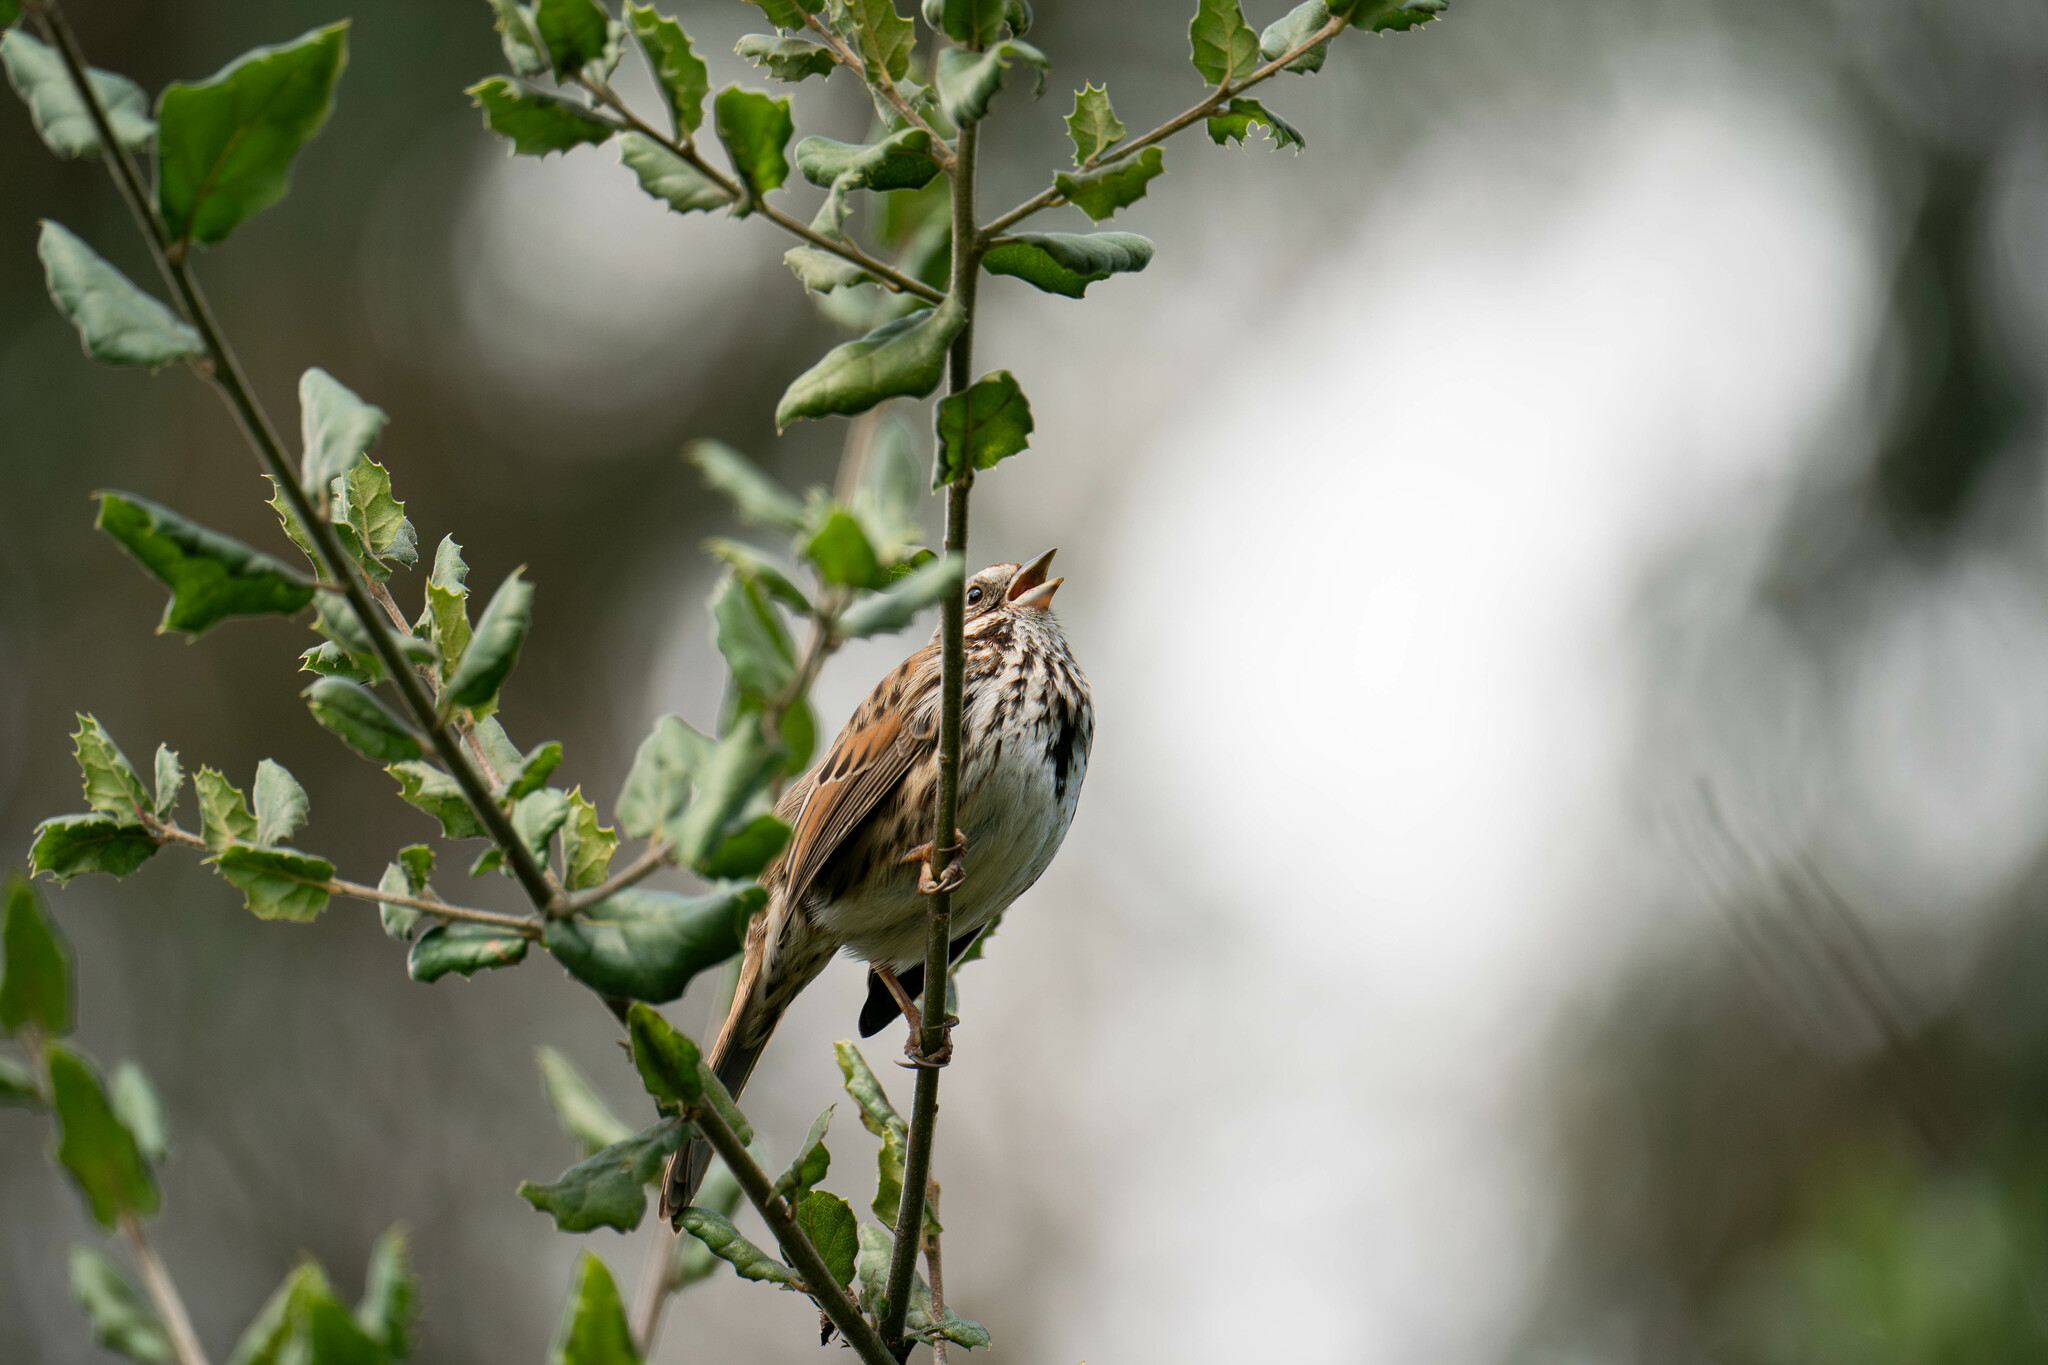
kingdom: Animalia
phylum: Chordata
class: Aves
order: Passeriformes
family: Passerellidae
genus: Melospiza
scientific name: Melospiza melodia
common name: Song sparrow
